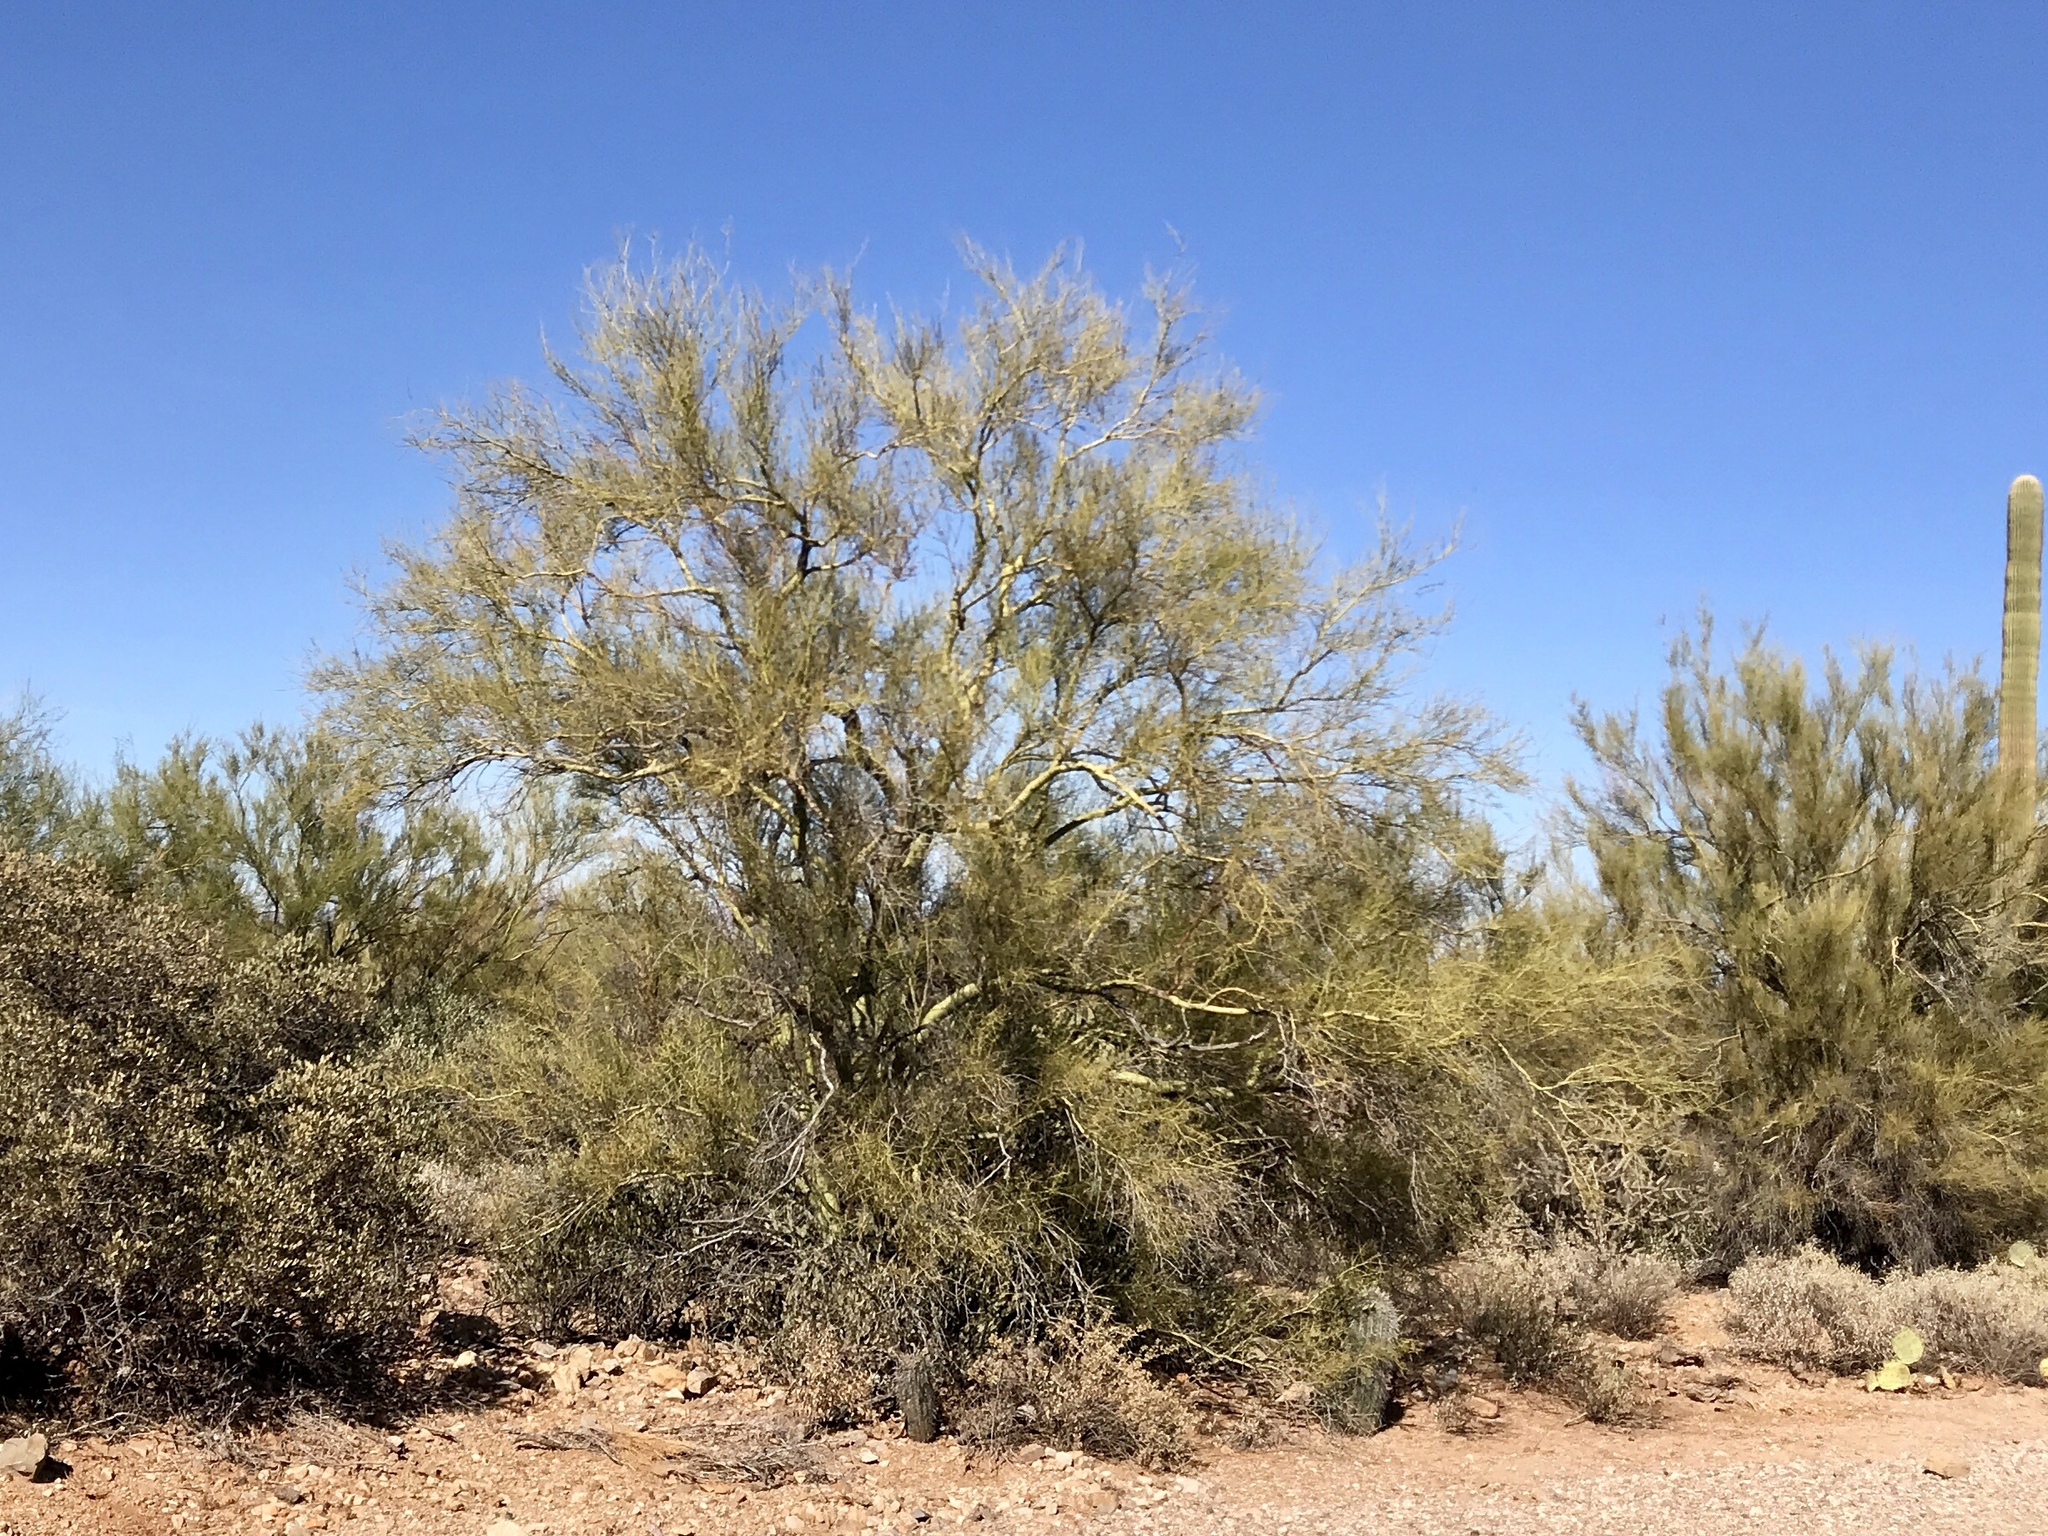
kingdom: Plantae
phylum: Tracheophyta
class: Magnoliopsida
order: Fabales
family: Fabaceae
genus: Parkinsonia
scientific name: Parkinsonia florida
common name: Blue paloverde
